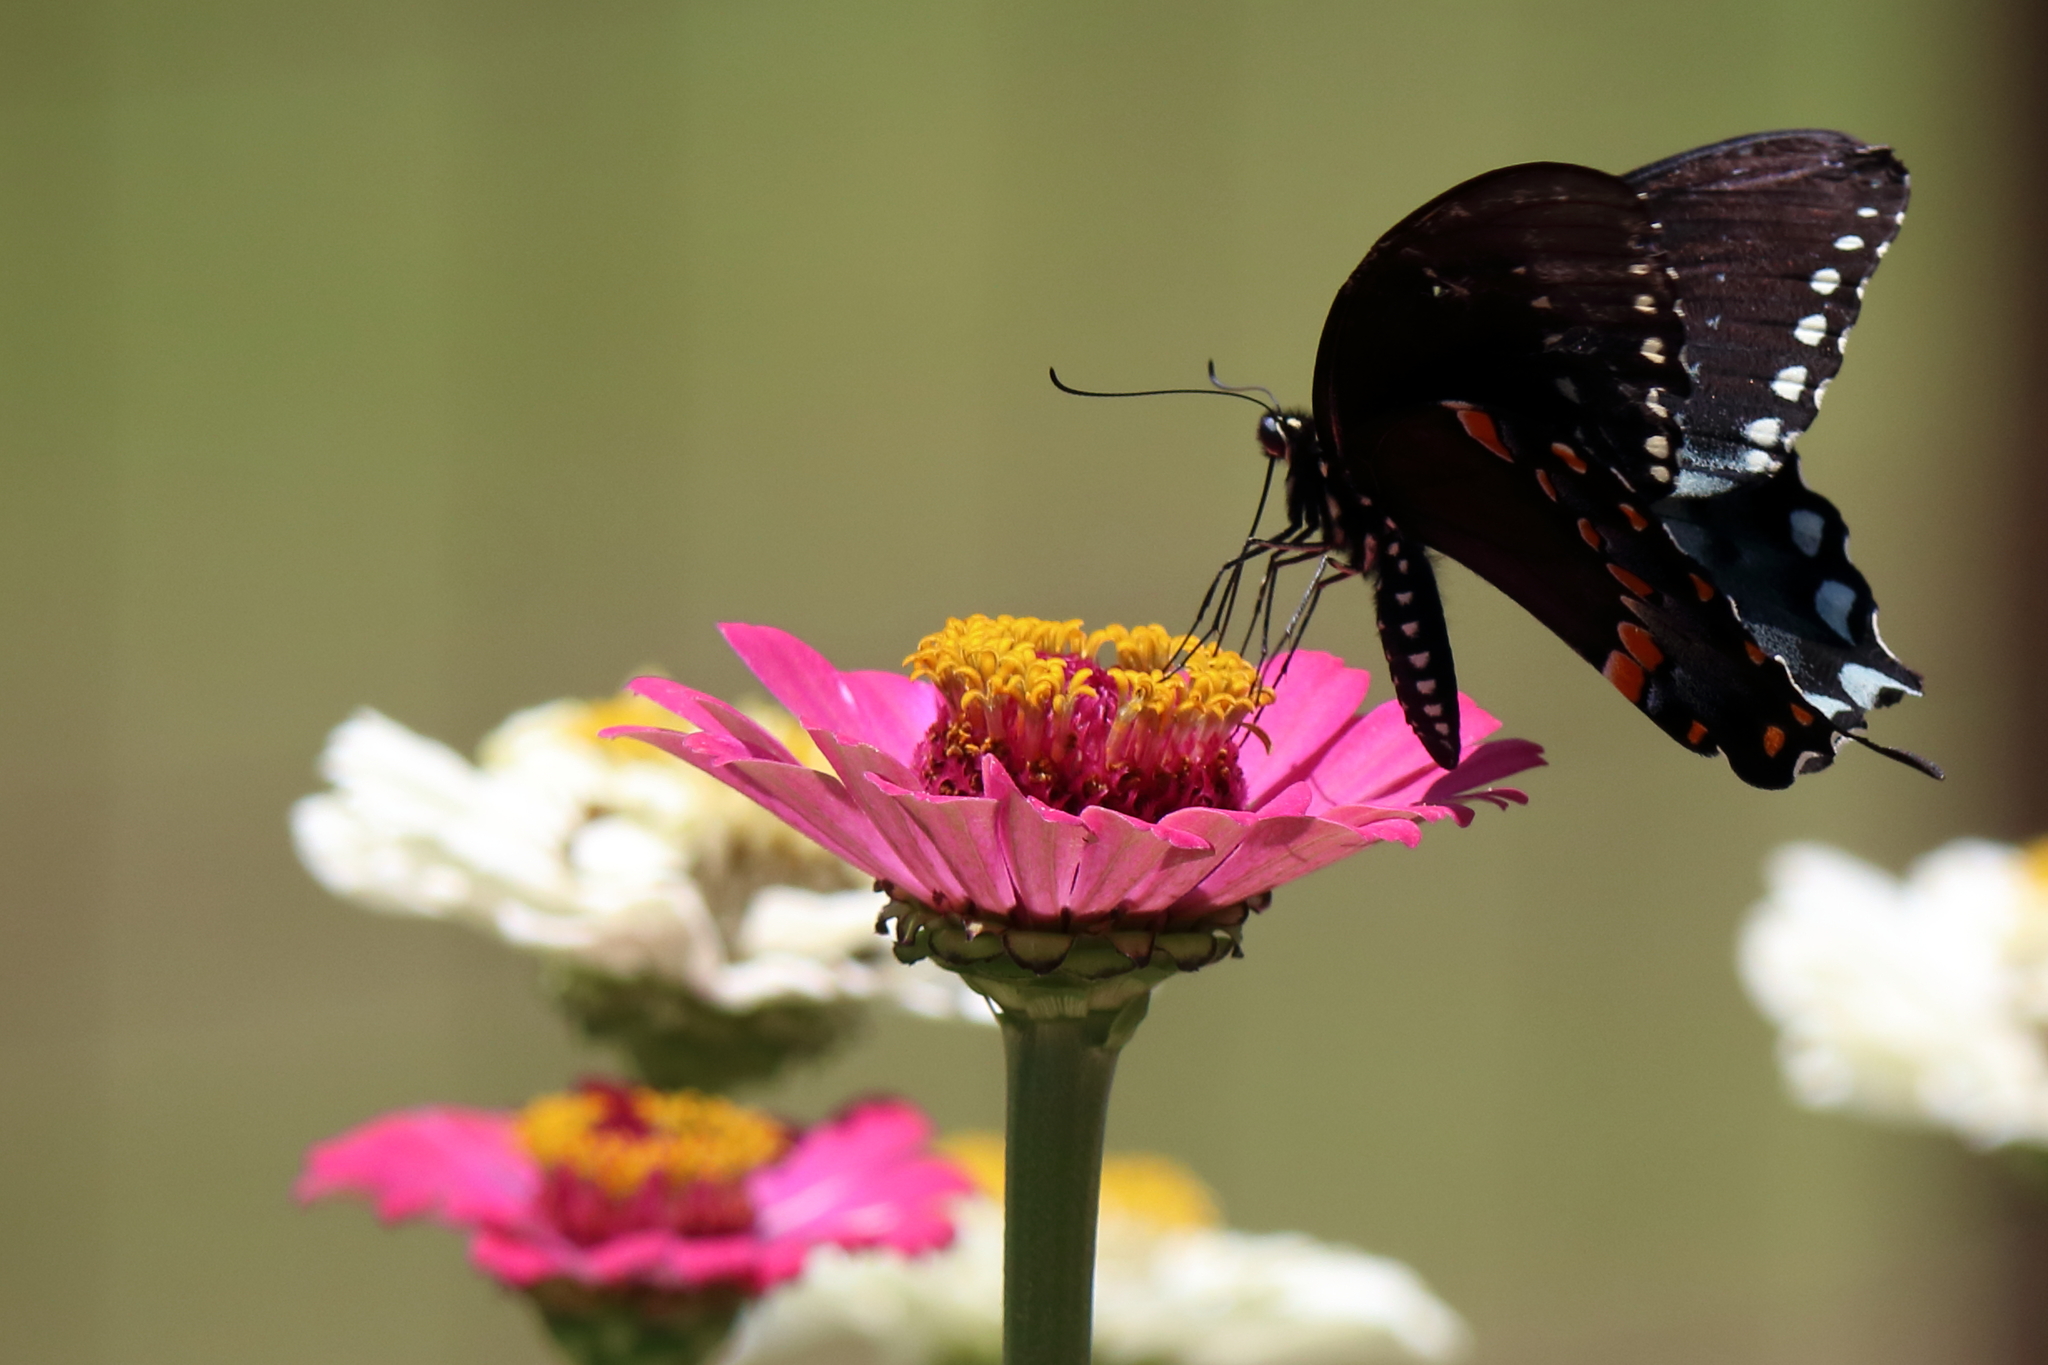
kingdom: Animalia
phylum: Arthropoda
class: Insecta
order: Lepidoptera
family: Papilionidae
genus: Papilio
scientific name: Papilio troilus
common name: Spicebush swallowtail
